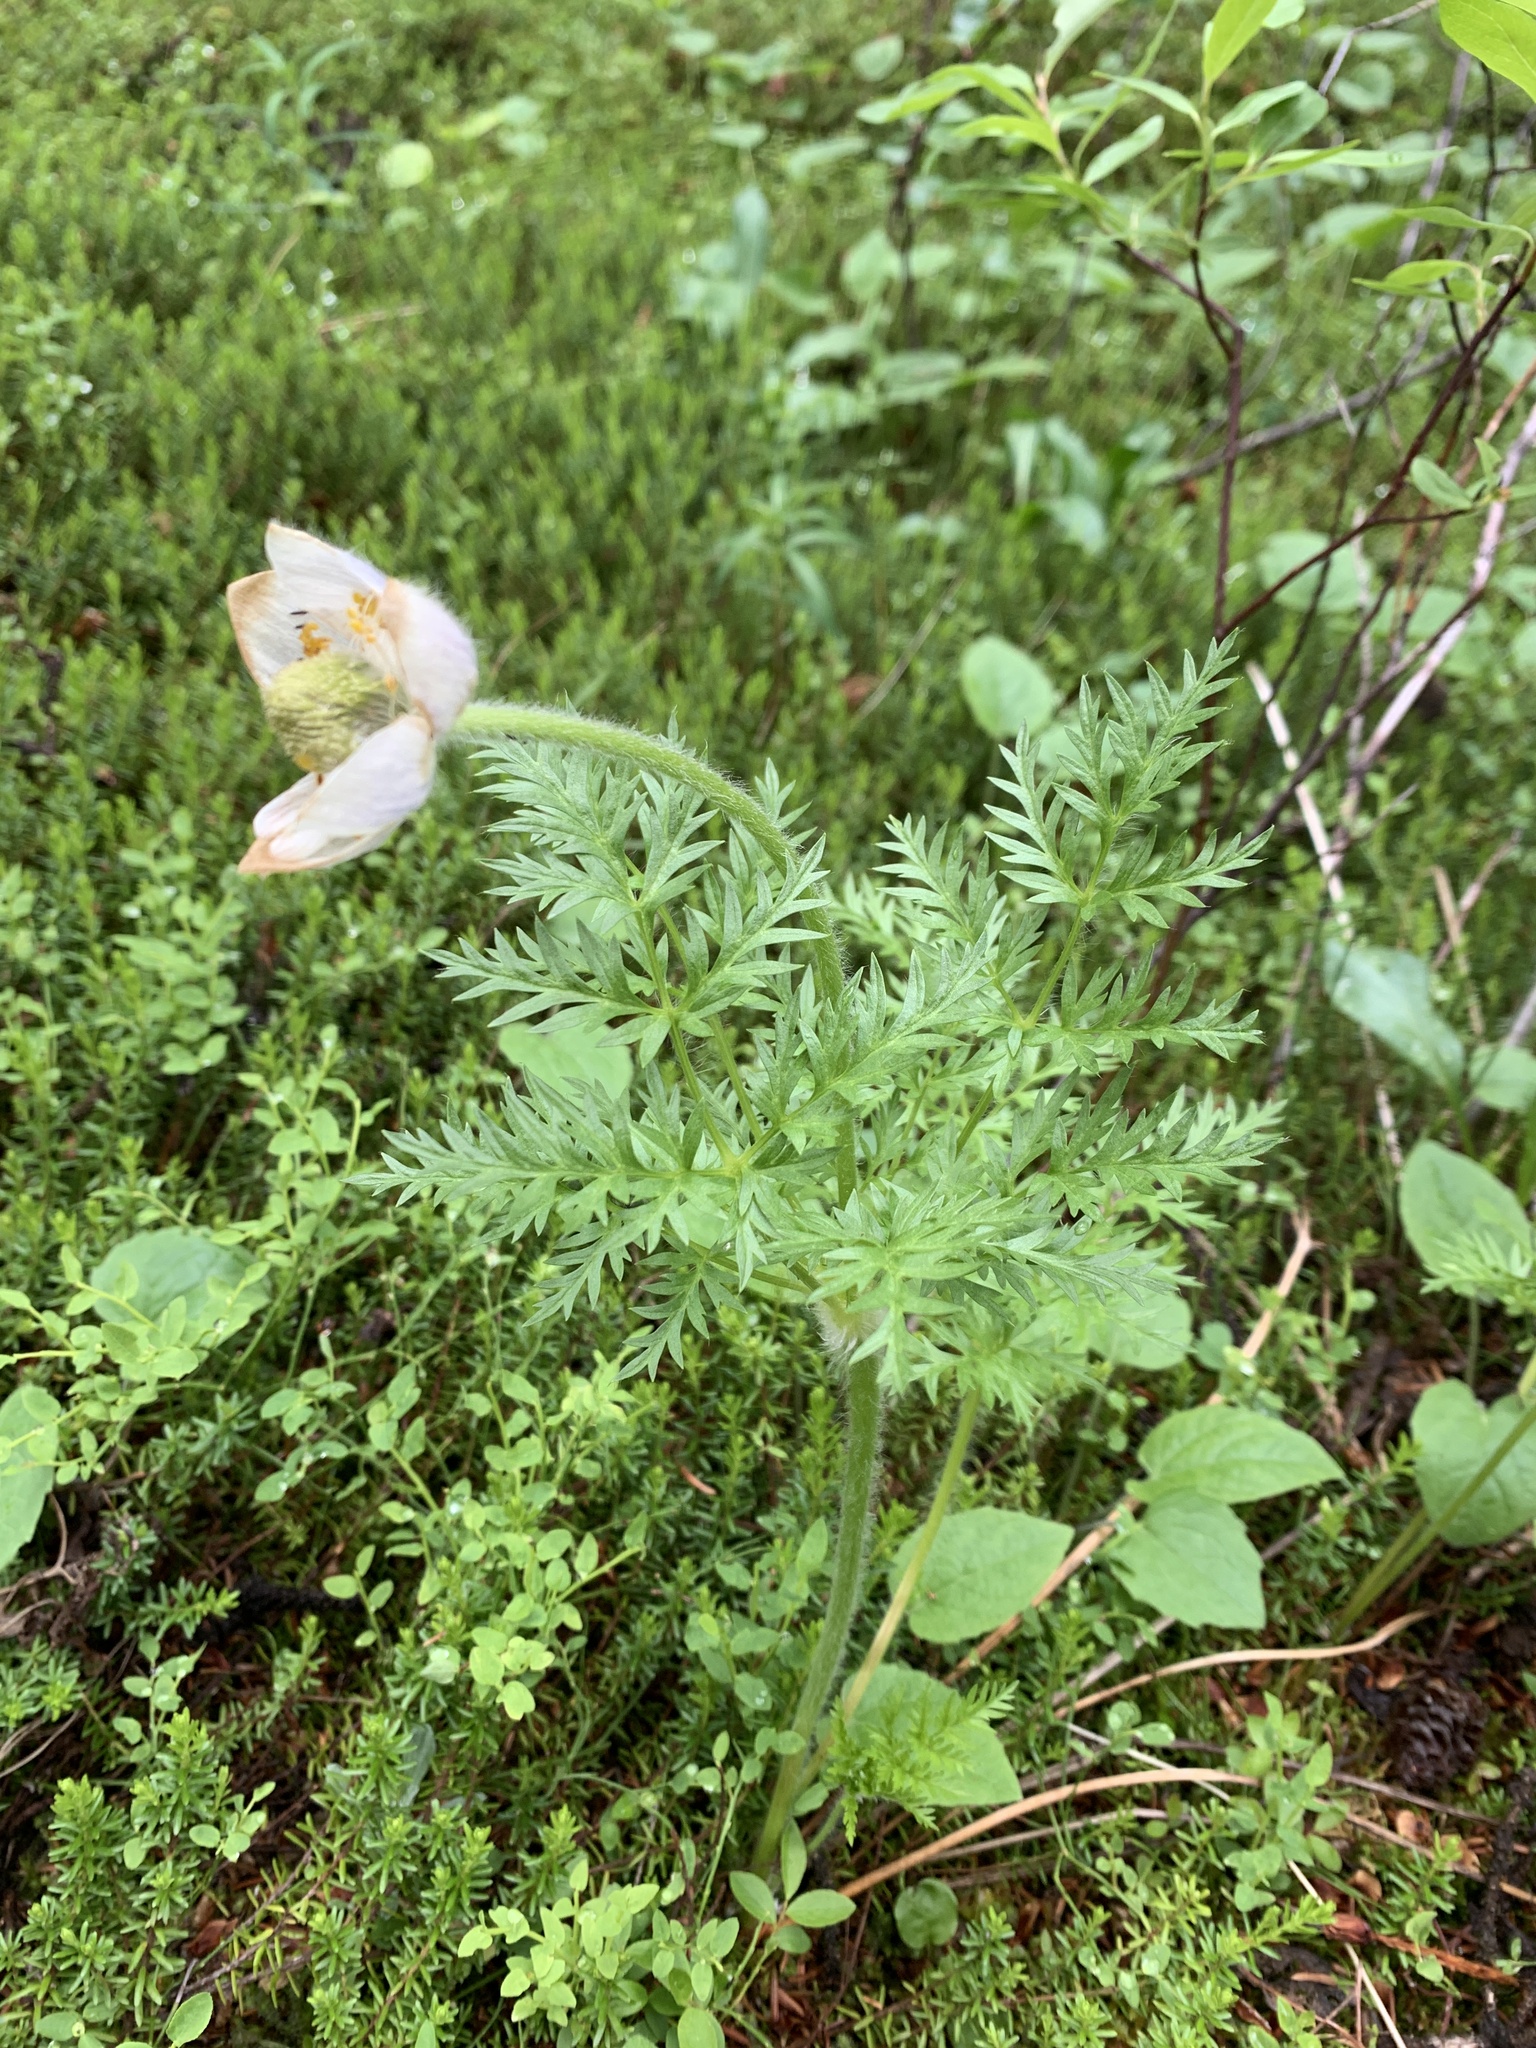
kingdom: Plantae
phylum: Tracheophyta
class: Magnoliopsida
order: Ranunculales
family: Ranunculaceae
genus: Pulsatilla
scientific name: Pulsatilla occidentalis
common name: Mountain pasqueflower
